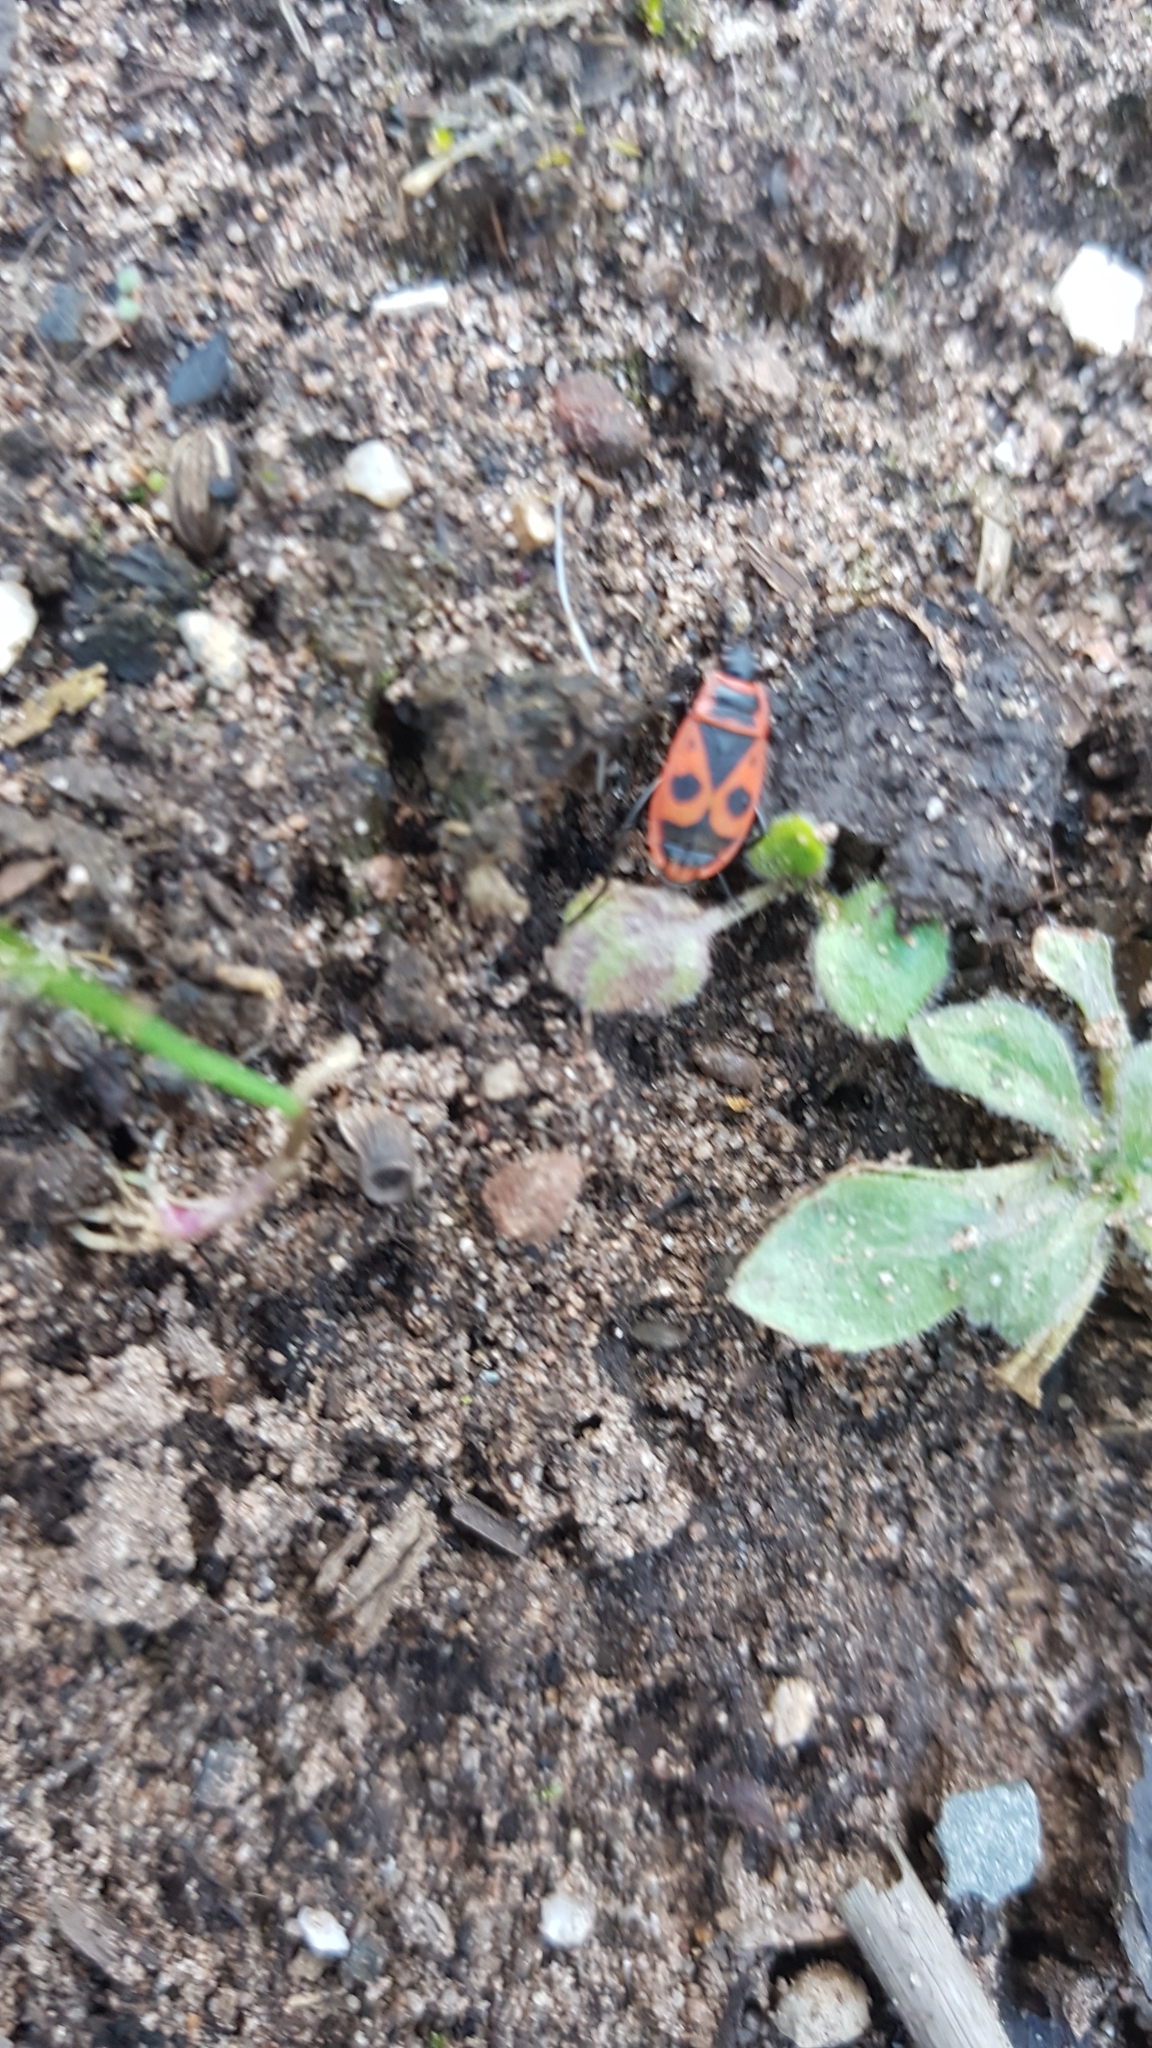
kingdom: Animalia
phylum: Arthropoda
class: Insecta
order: Hemiptera
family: Pyrrhocoridae
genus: Pyrrhocoris
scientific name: Pyrrhocoris apterus
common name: Firebug
